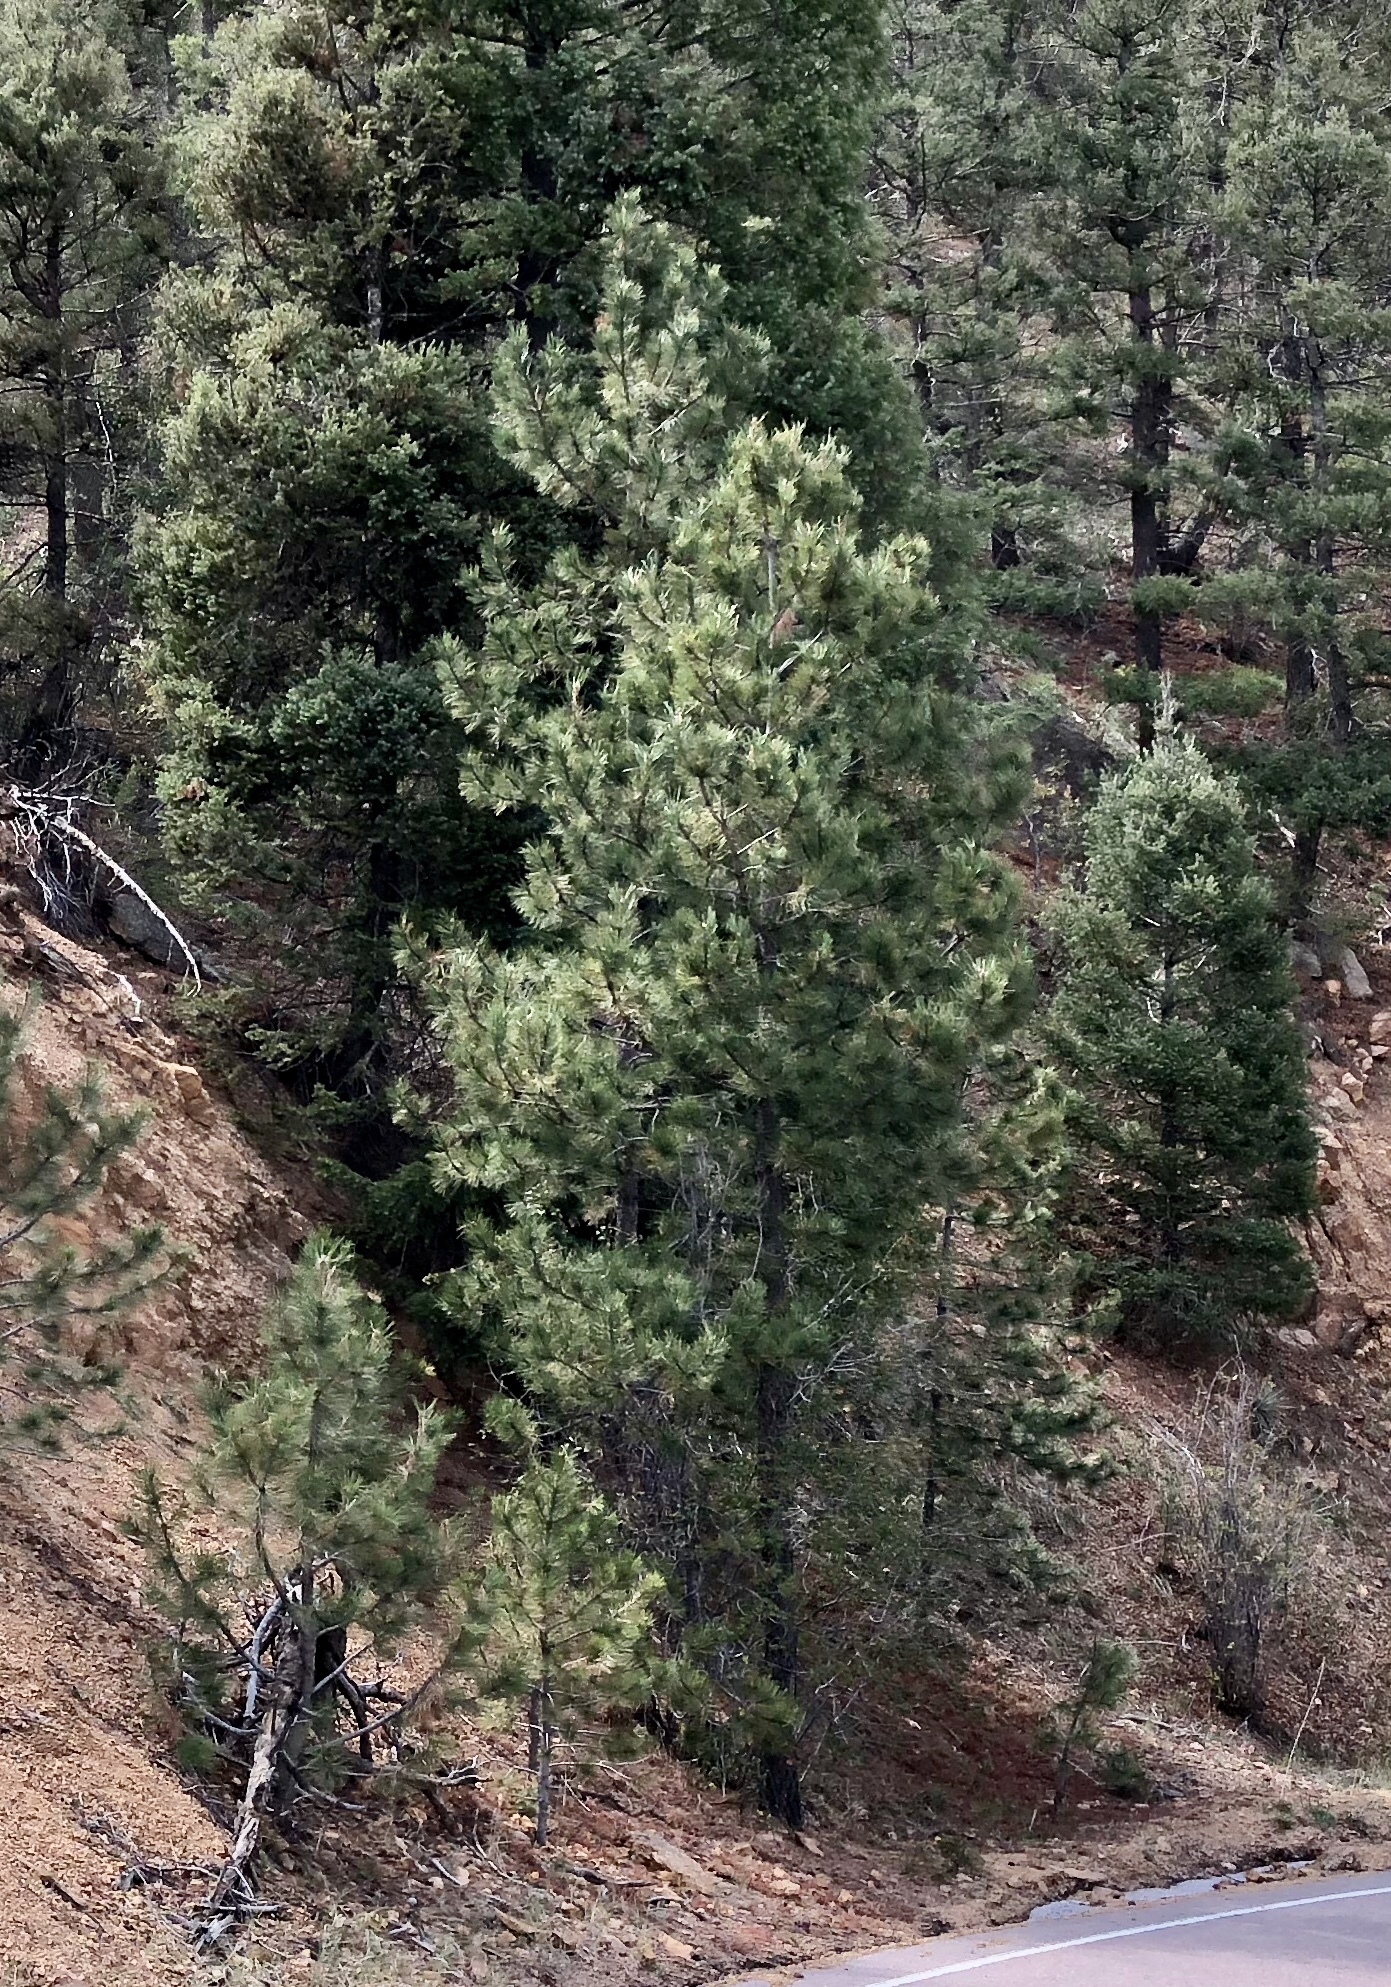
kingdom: Plantae
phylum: Tracheophyta
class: Pinopsida
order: Pinales
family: Pinaceae
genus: Pinus
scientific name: Pinus ponderosa
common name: Western yellow-pine
